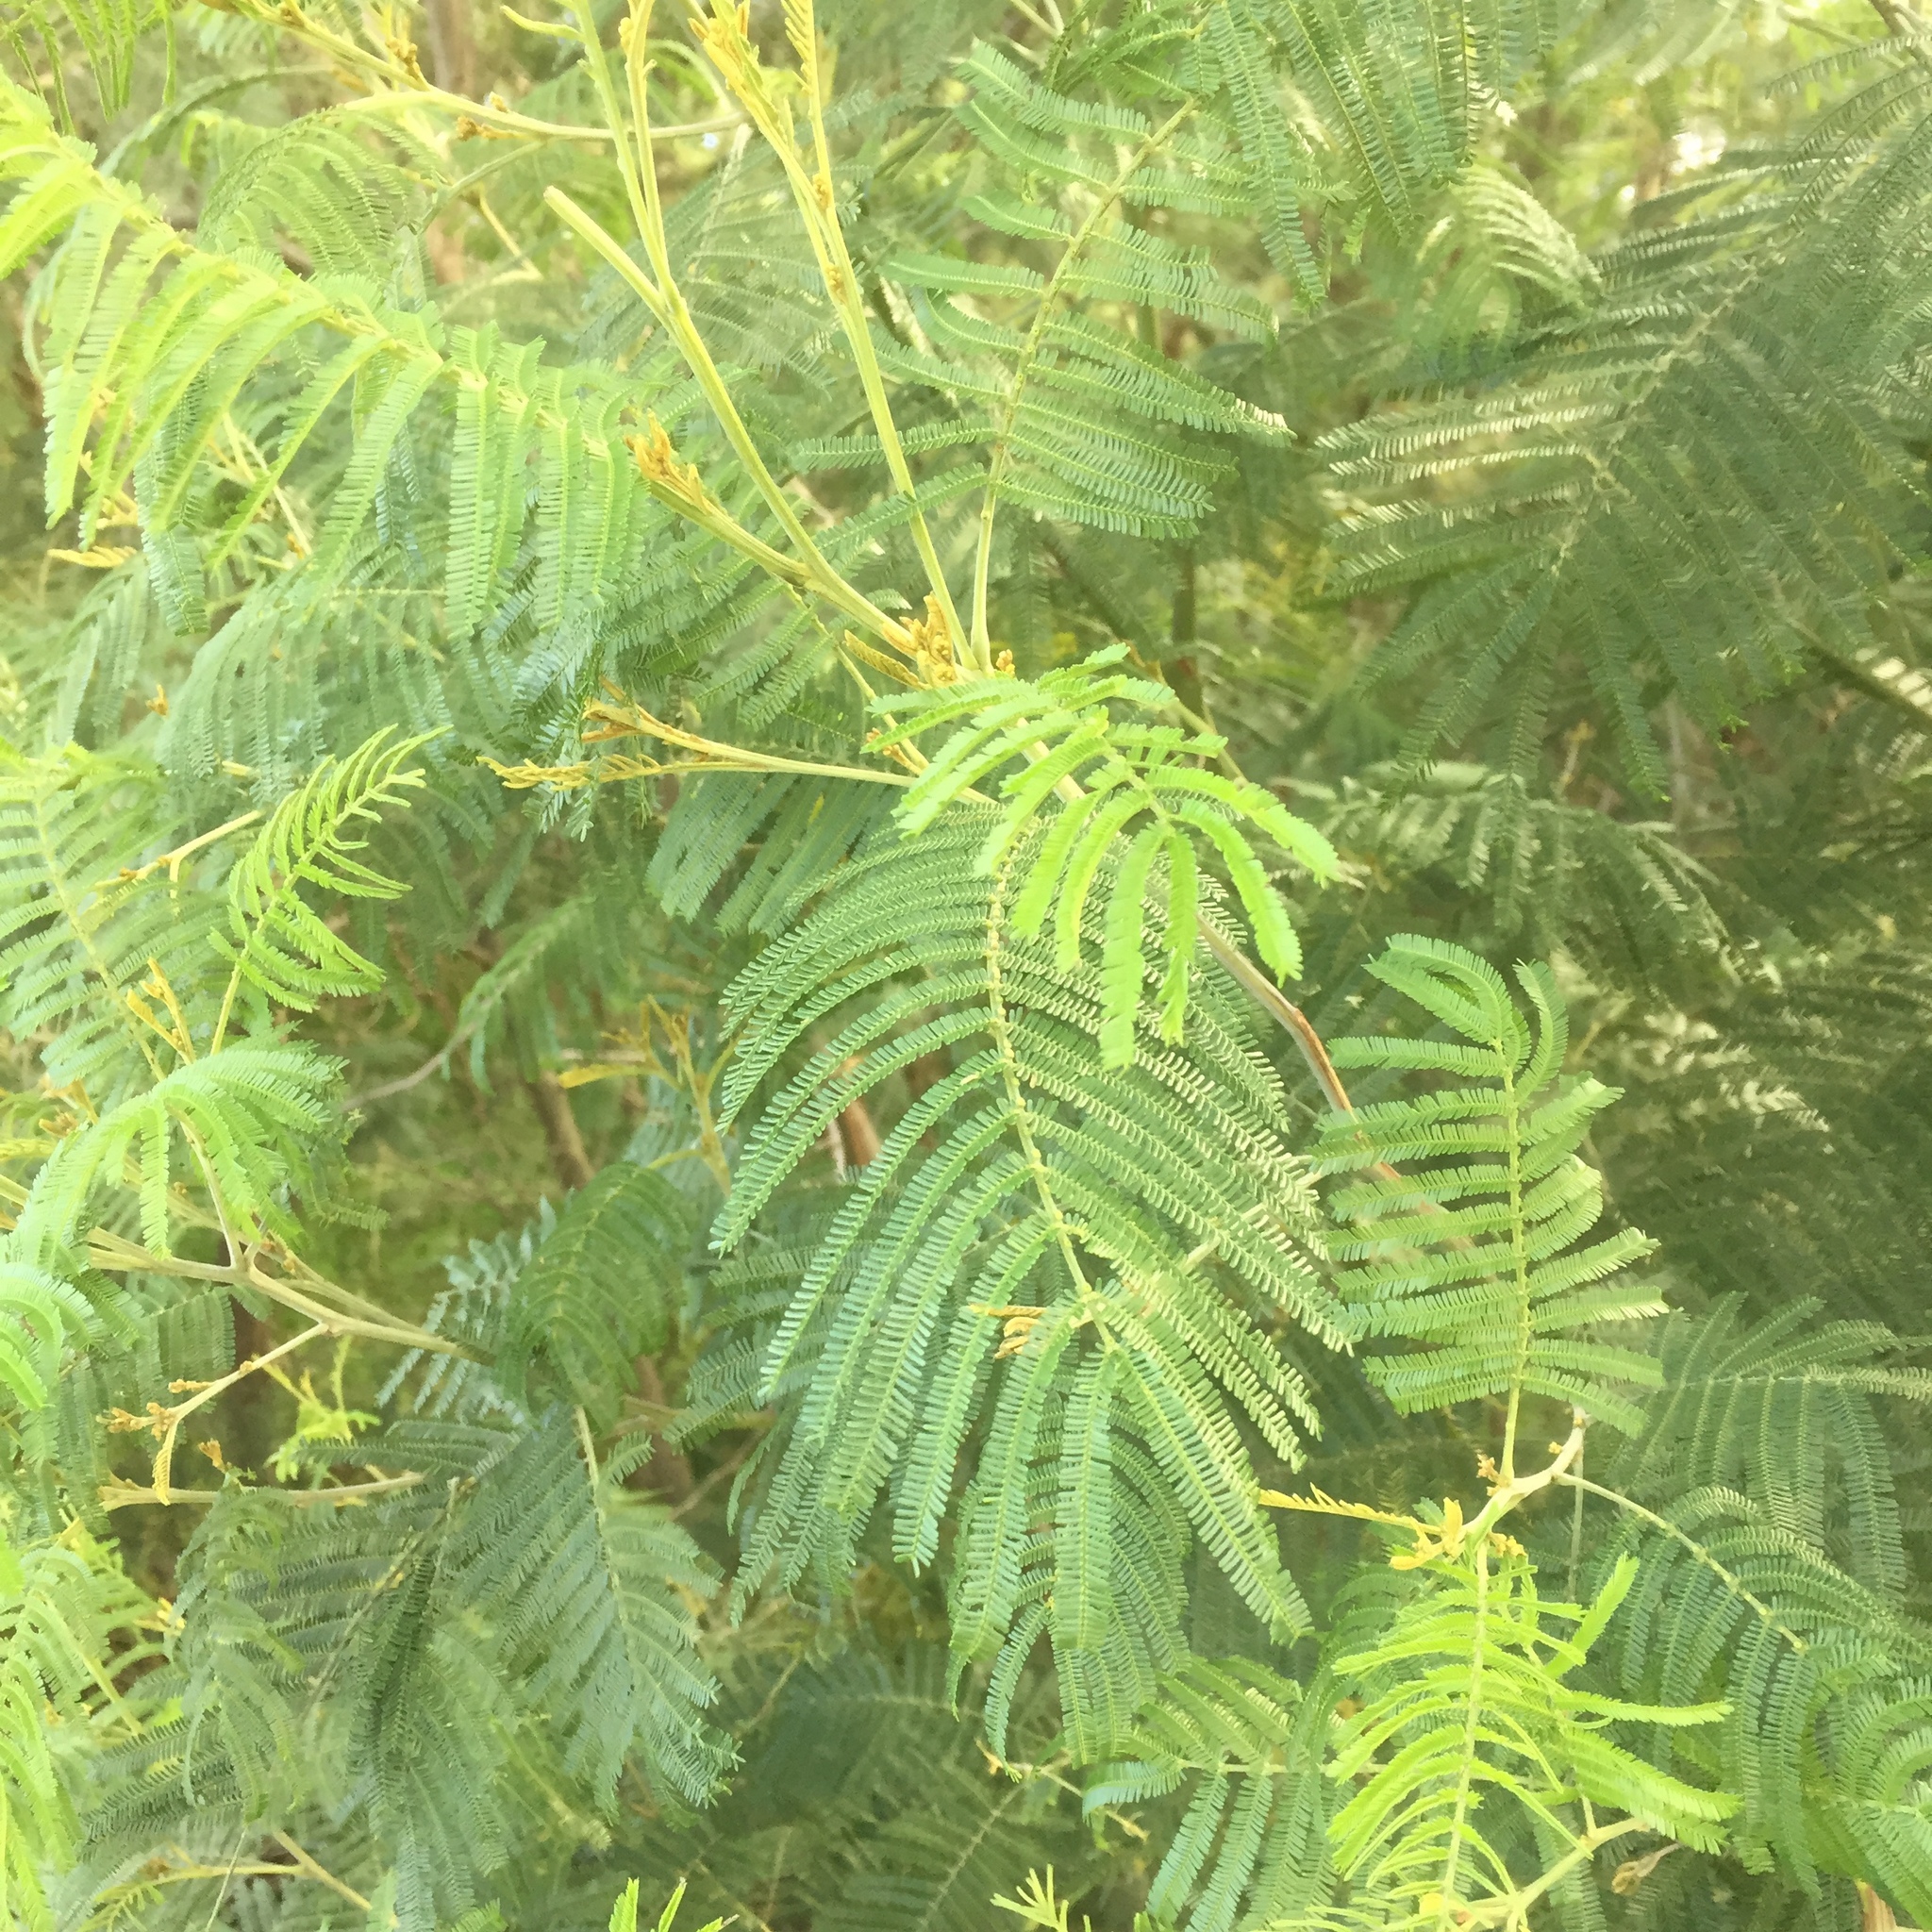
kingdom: Plantae
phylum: Tracheophyta
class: Magnoliopsida
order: Fabales
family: Fabaceae
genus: Acacia
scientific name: Acacia mearnsii
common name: Black wattle
